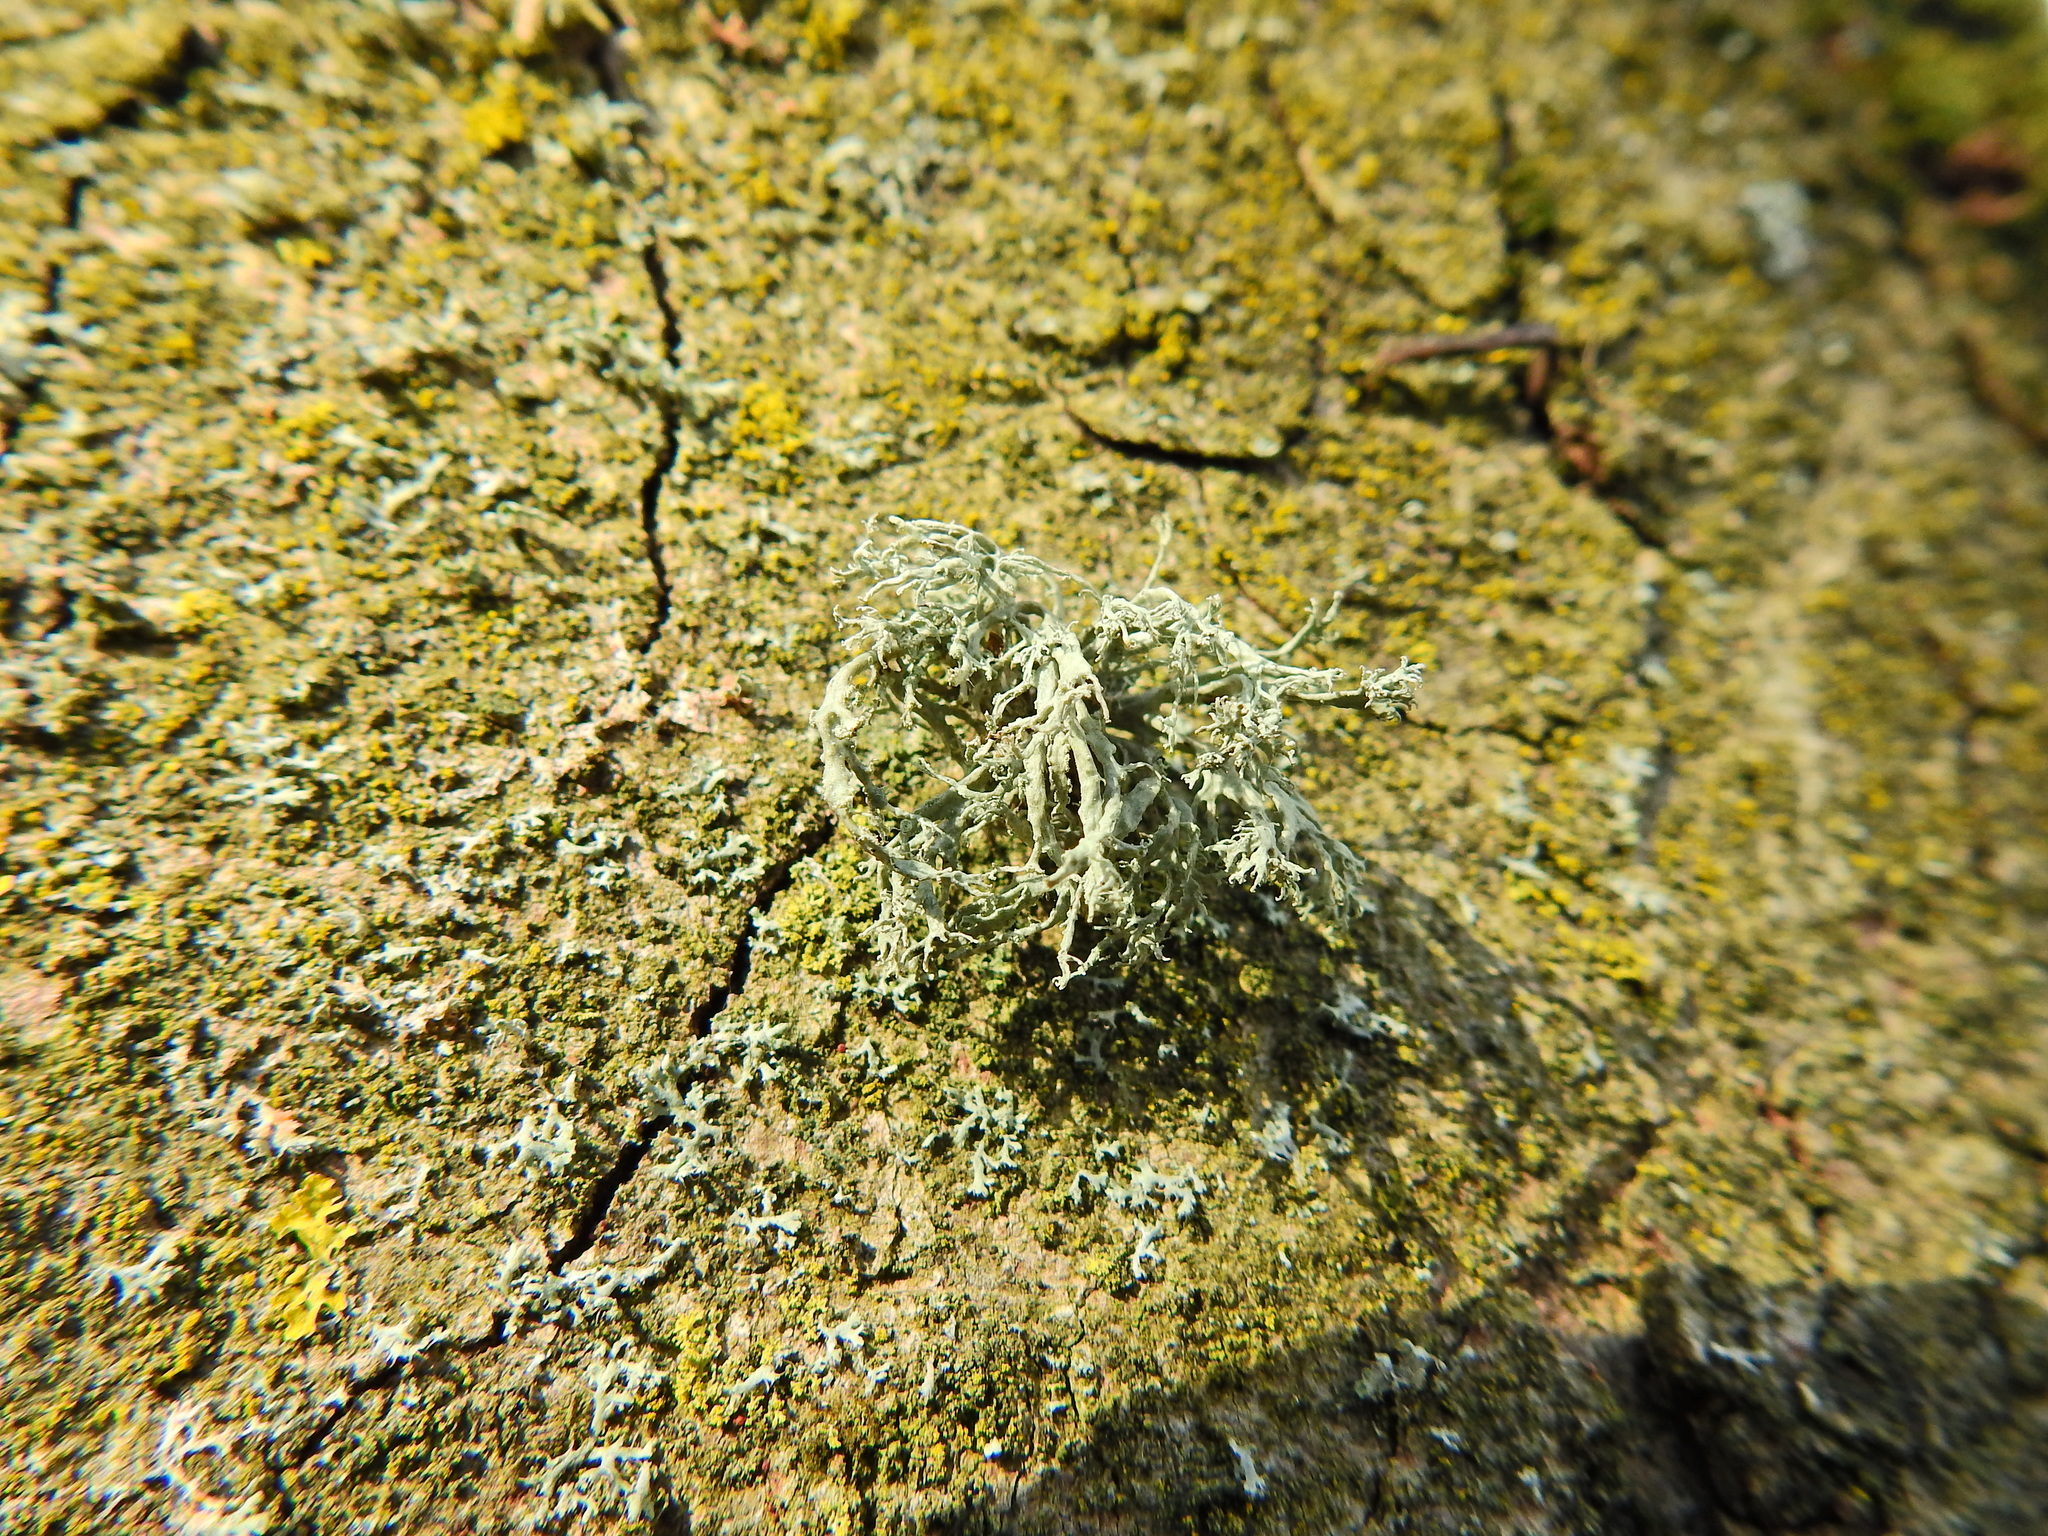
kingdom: Fungi
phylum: Ascomycota
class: Lecanoromycetes
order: Lecanorales
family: Ramalinaceae
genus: Ramalina
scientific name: Ramalina farinacea
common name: Farinose cartilage lichen
